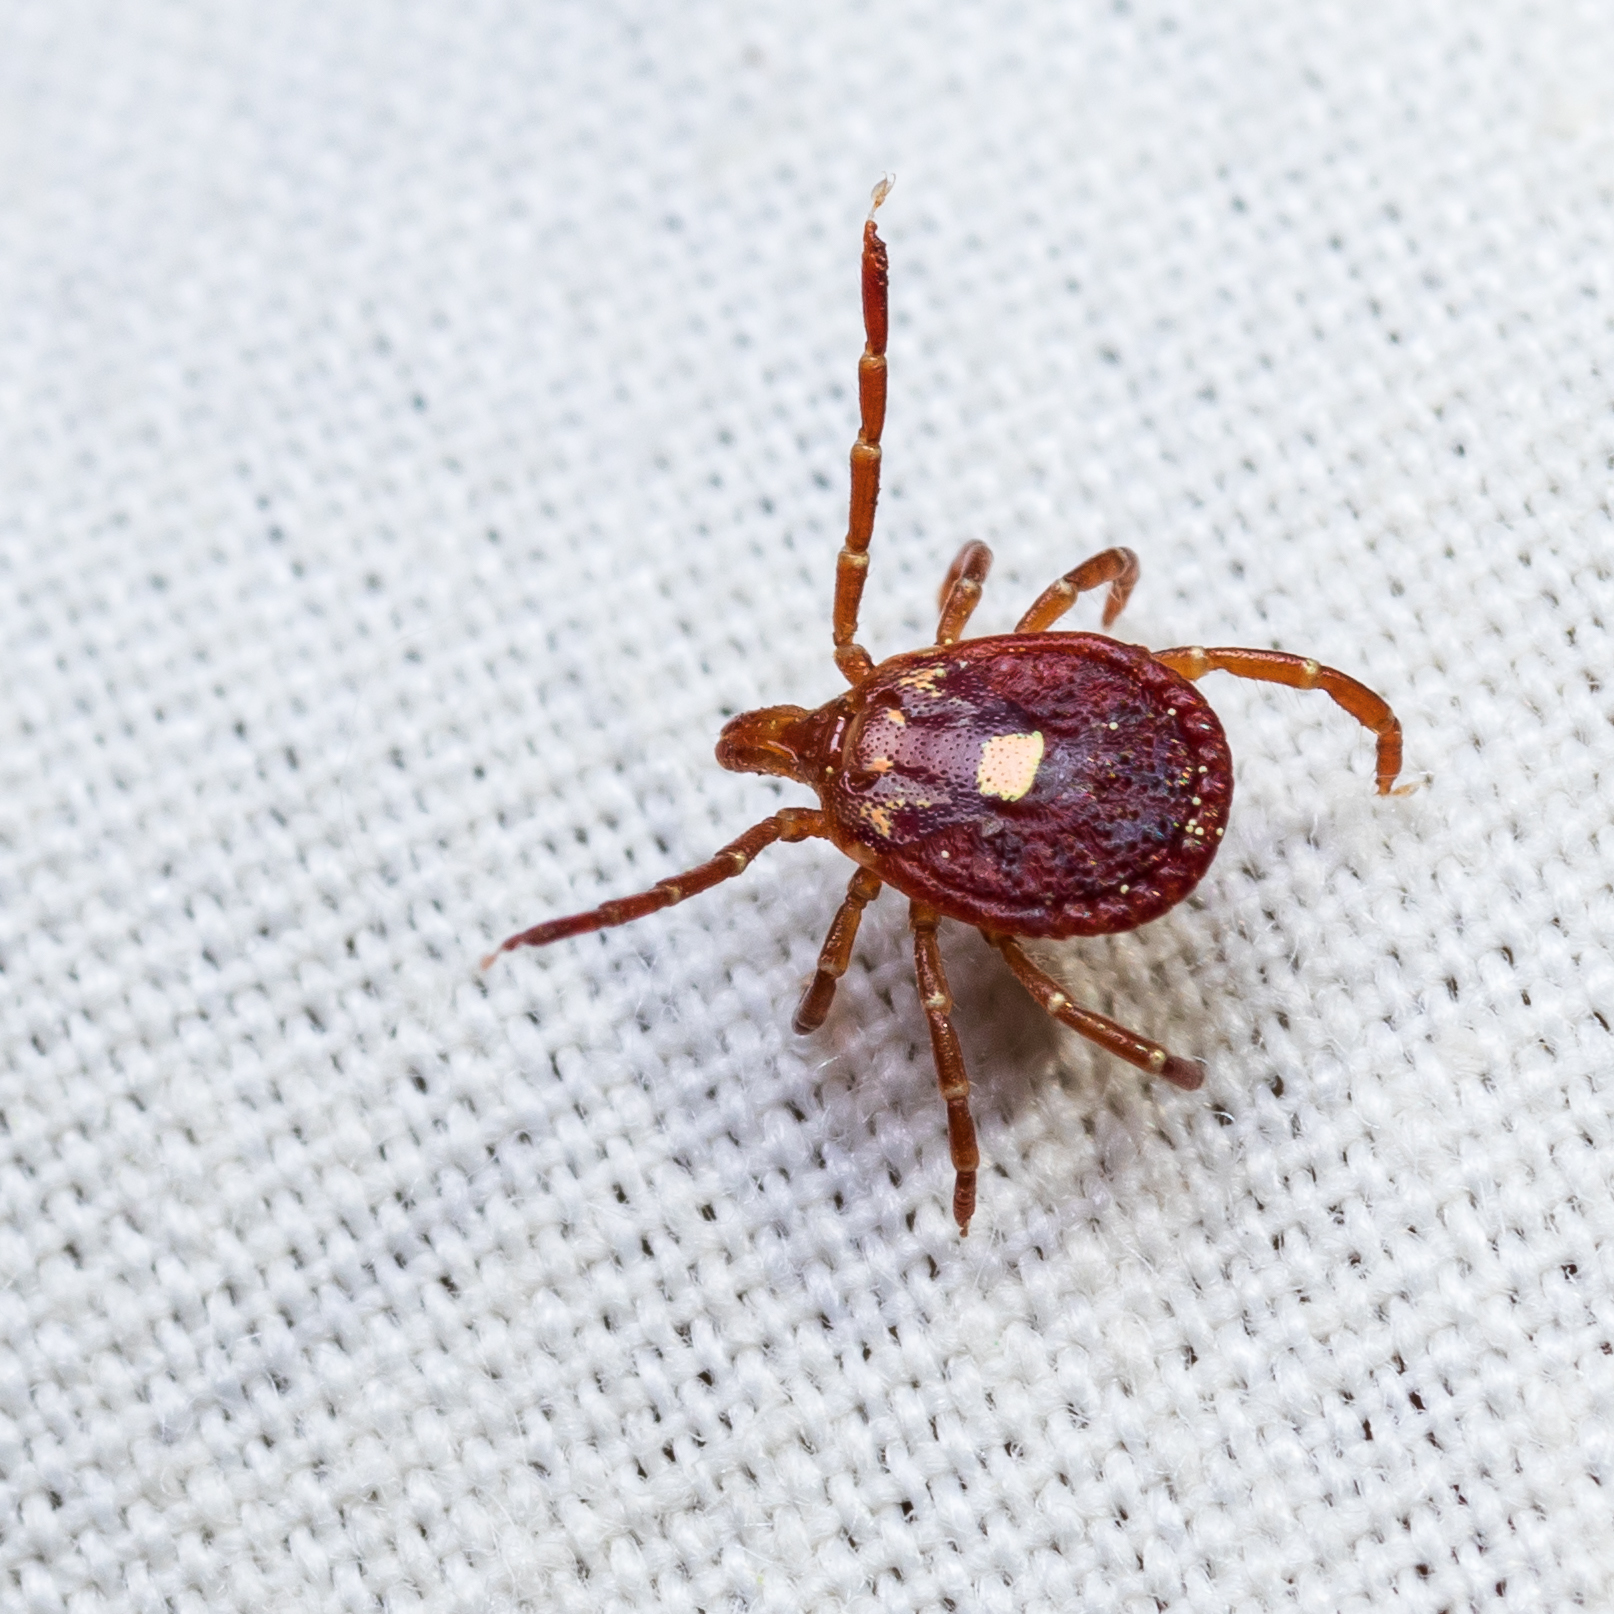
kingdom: Animalia
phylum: Arthropoda
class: Arachnida
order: Ixodida
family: Ixodidae
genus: Amblyomma
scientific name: Amblyomma americanum
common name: Lone star tick
